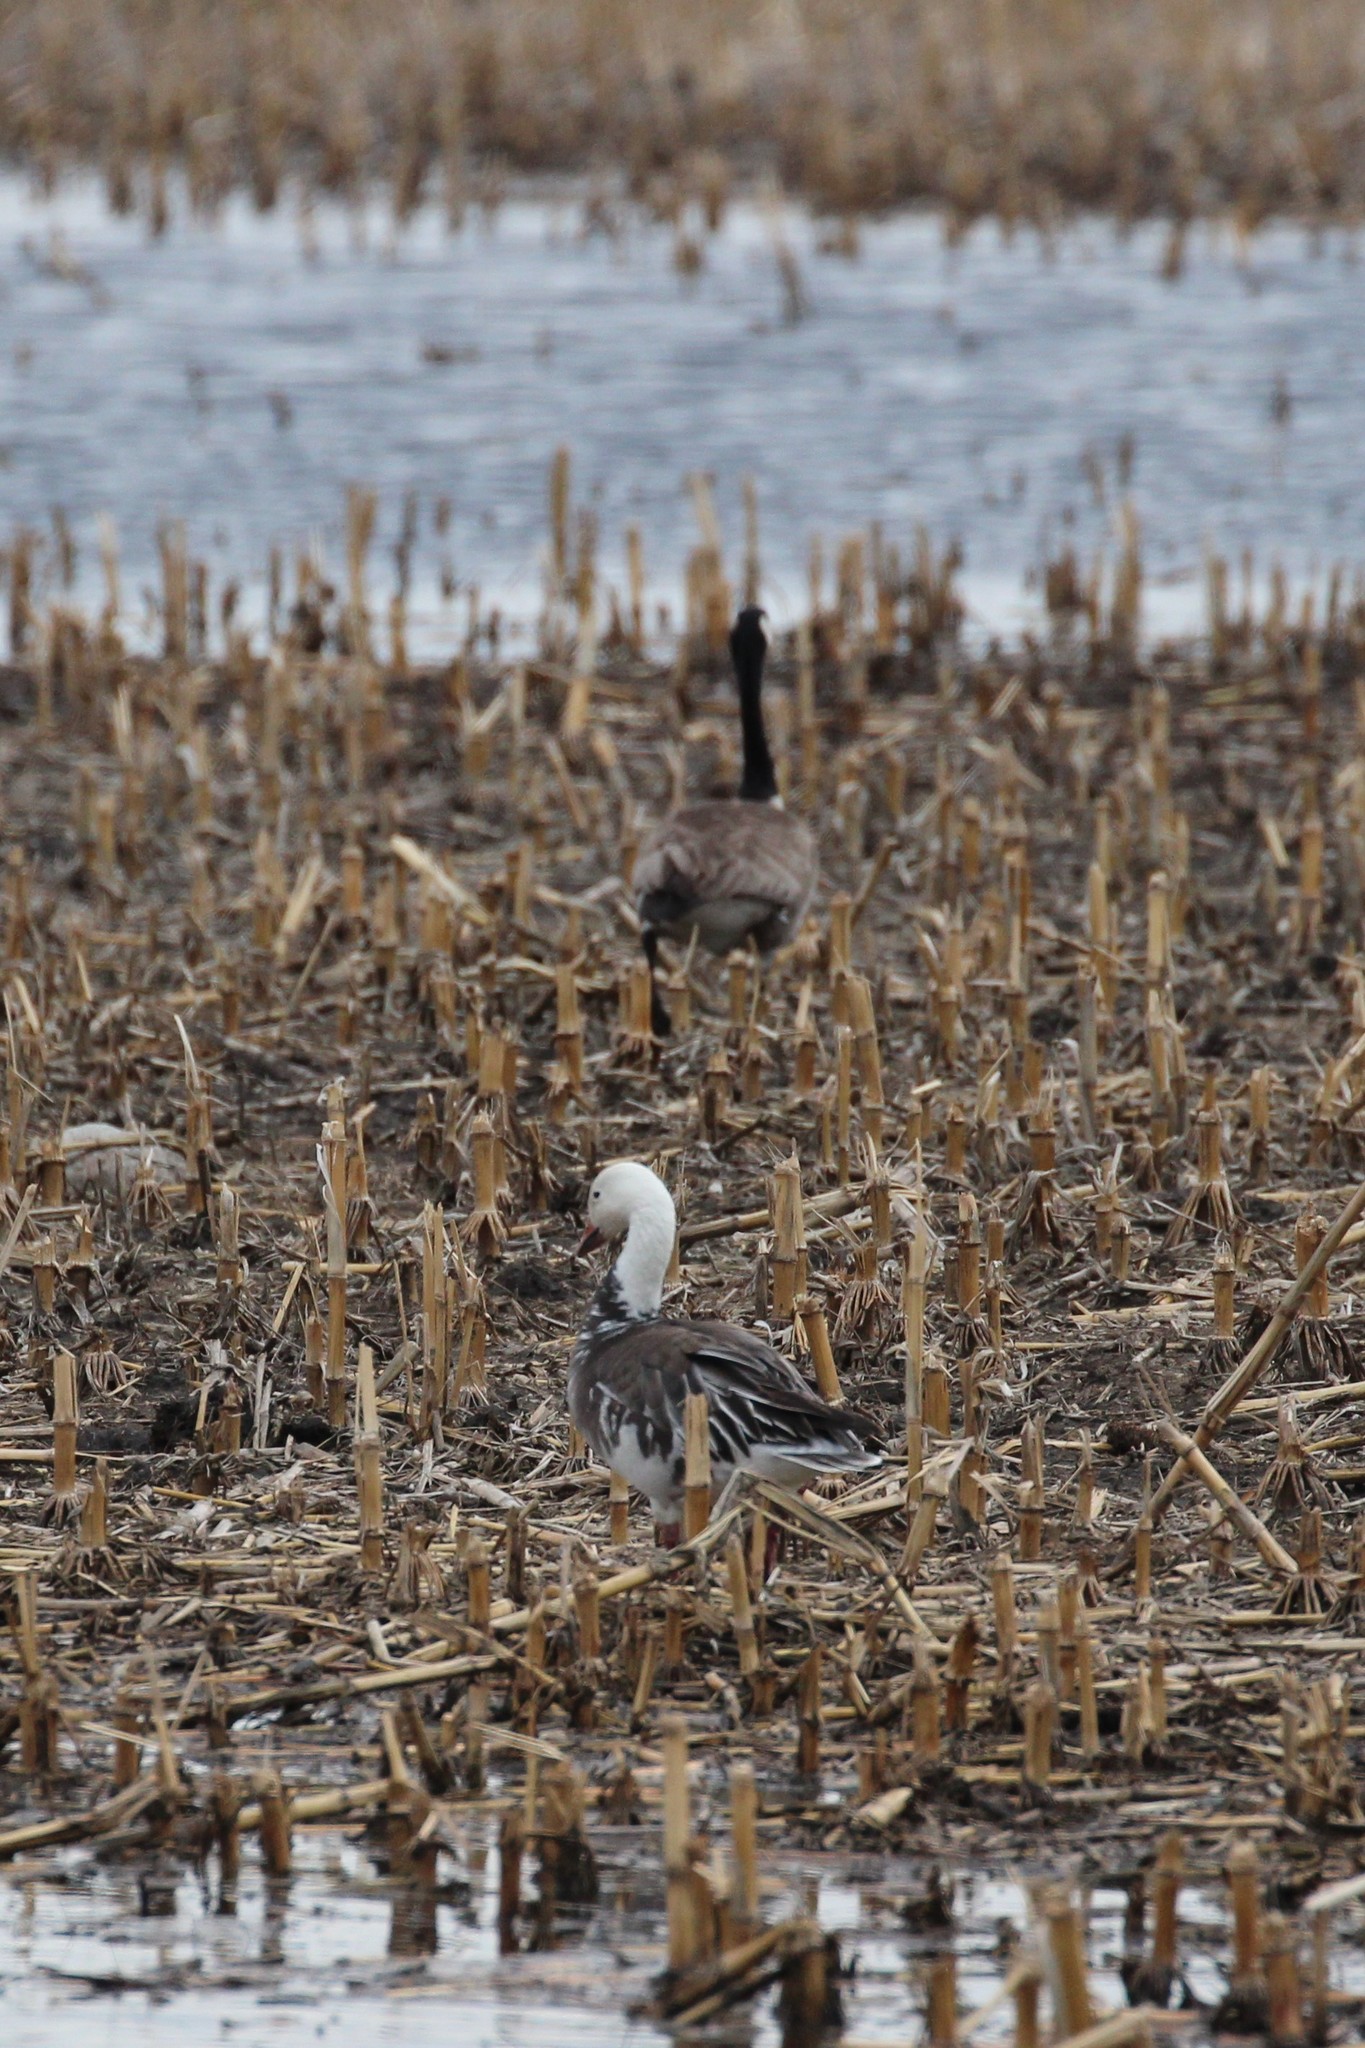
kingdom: Animalia
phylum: Chordata
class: Aves
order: Anseriformes
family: Anatidae
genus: Branta
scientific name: Branta canadensis
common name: Canada goose
